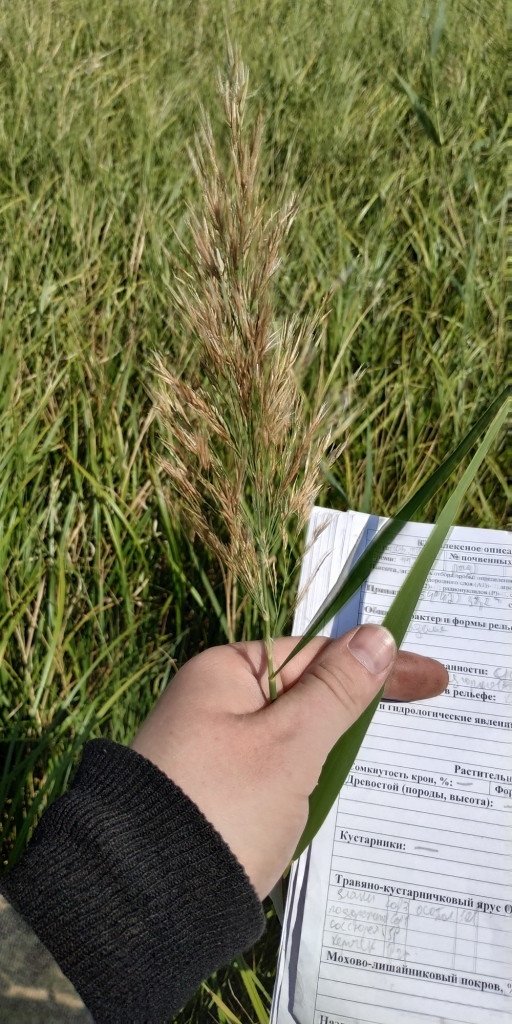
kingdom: Plantae
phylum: Tracheophyta
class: Liliopsida
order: Poales
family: Poaceae
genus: Phragmites
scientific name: Phragmites australis
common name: Common reed
